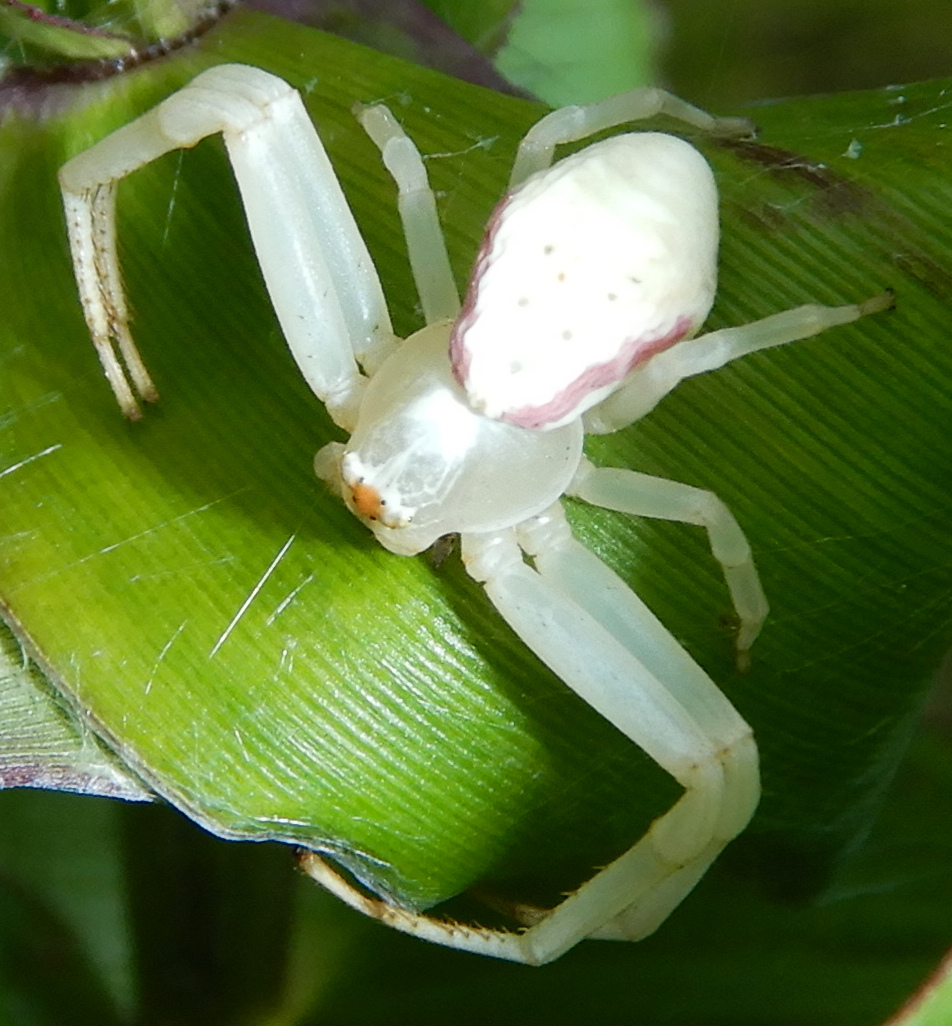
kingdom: Animalia
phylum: Arthropoda
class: Arachnida
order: Araneae
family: Thomisidae
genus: Misumena
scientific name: Misumena vatia
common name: Goldenrod crab spider
